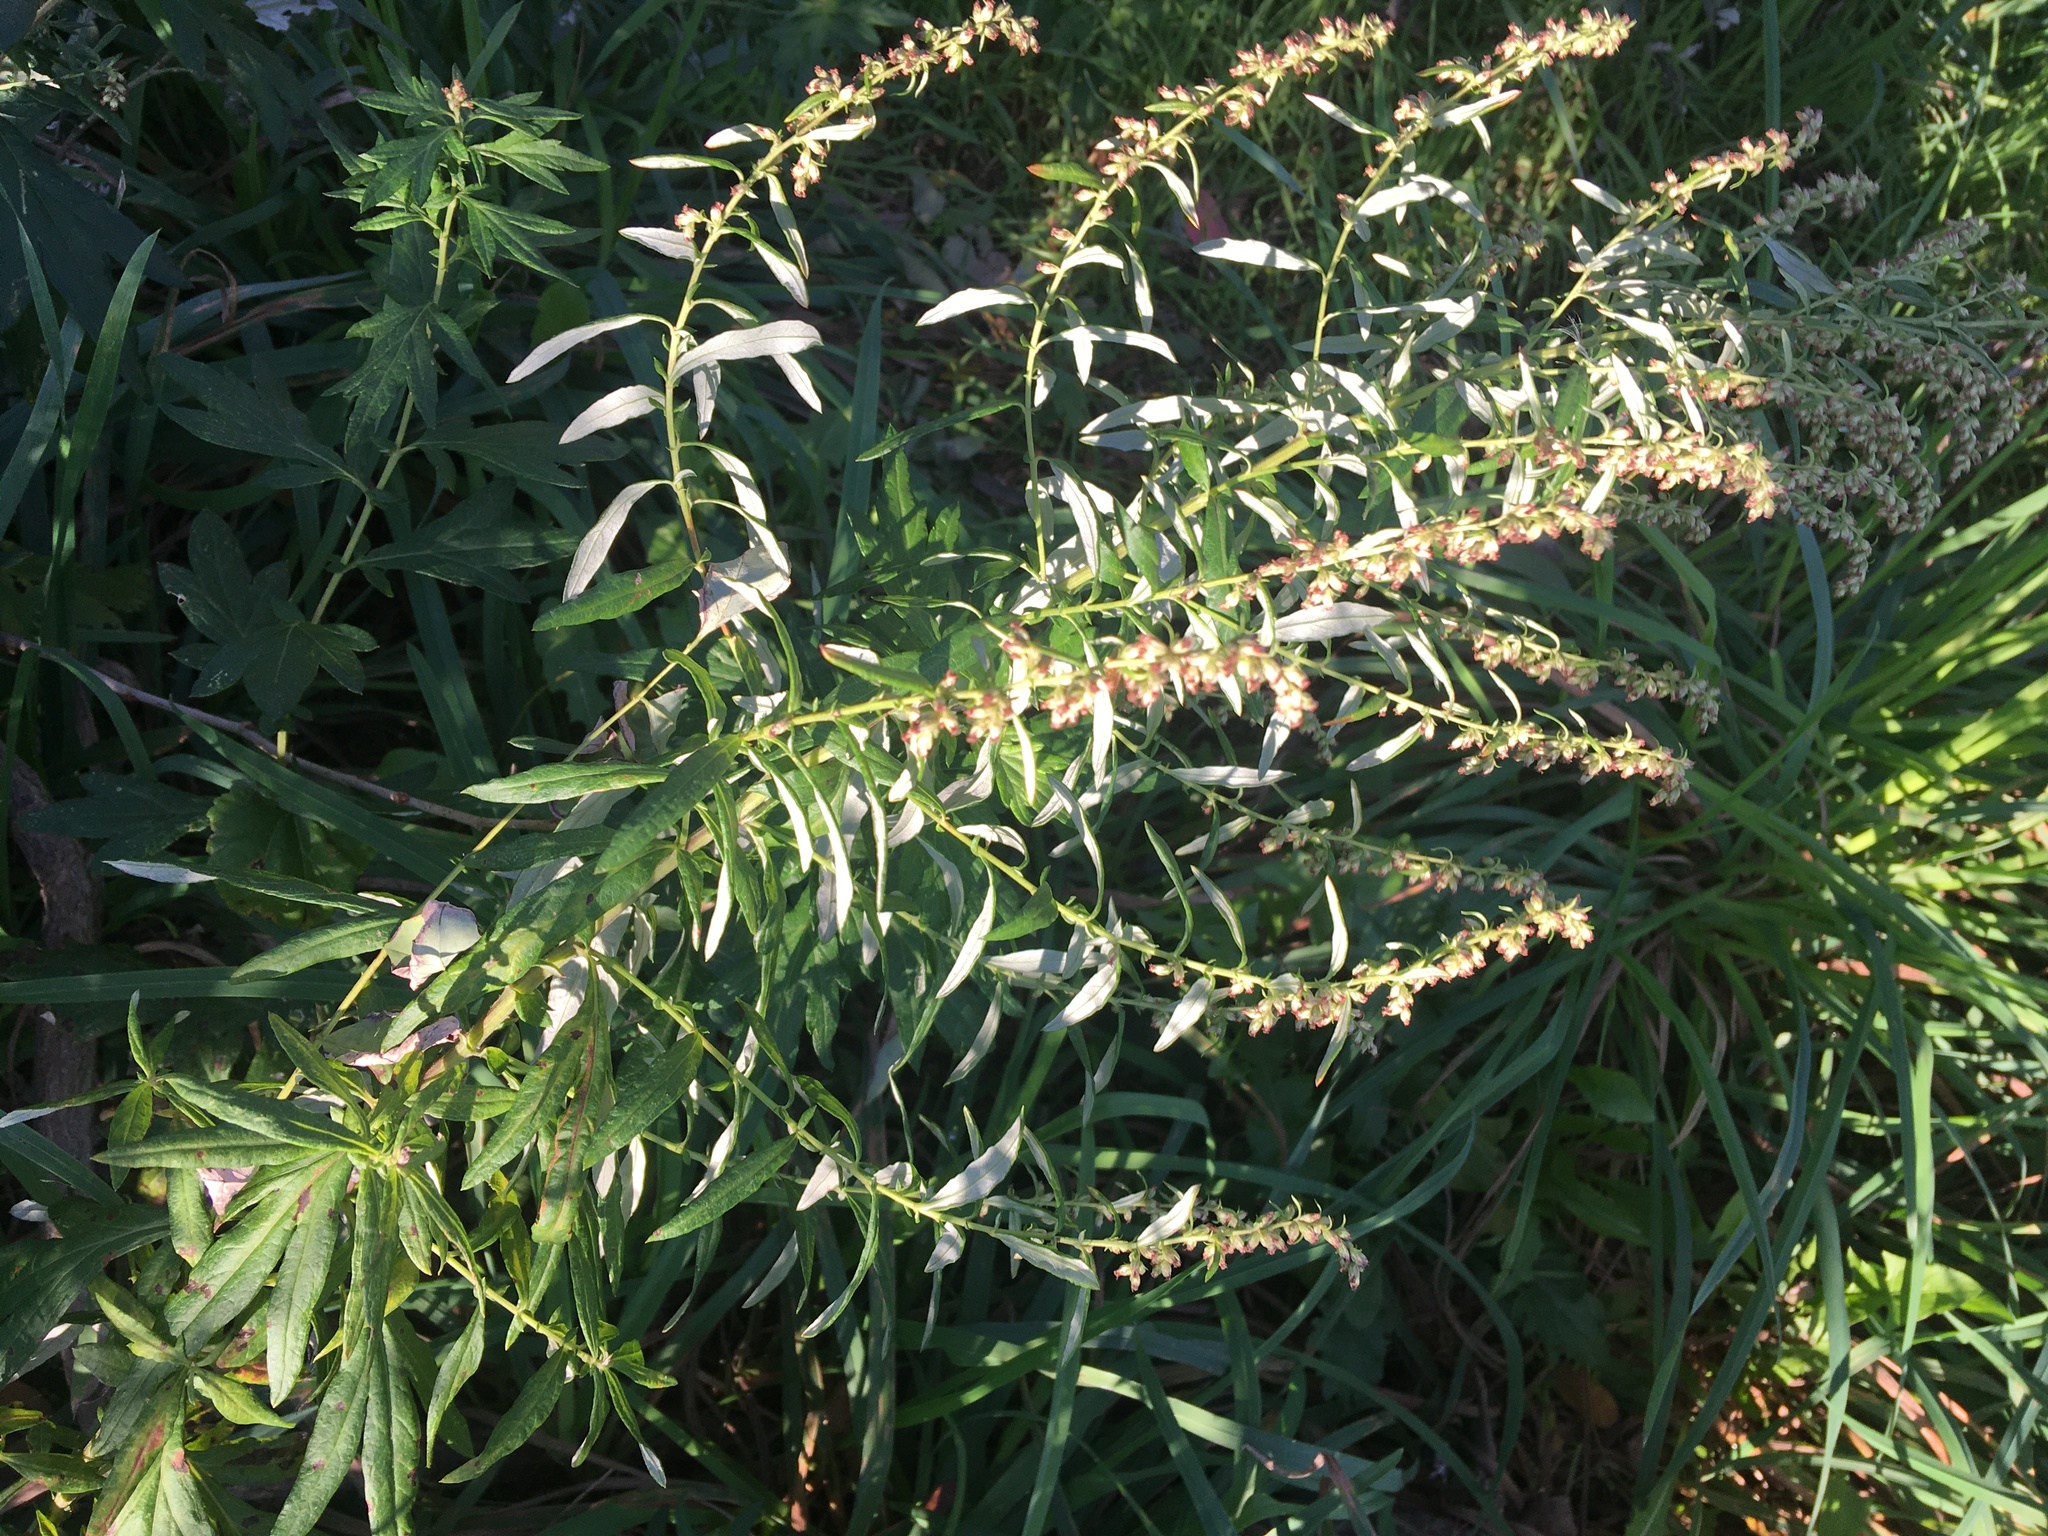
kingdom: Plantae
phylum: Tracheophyta
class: Magnoliopsida
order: Asterales
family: Asteraceae
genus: Artemisia
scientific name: Artemisia vulgaris
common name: Mugwort
